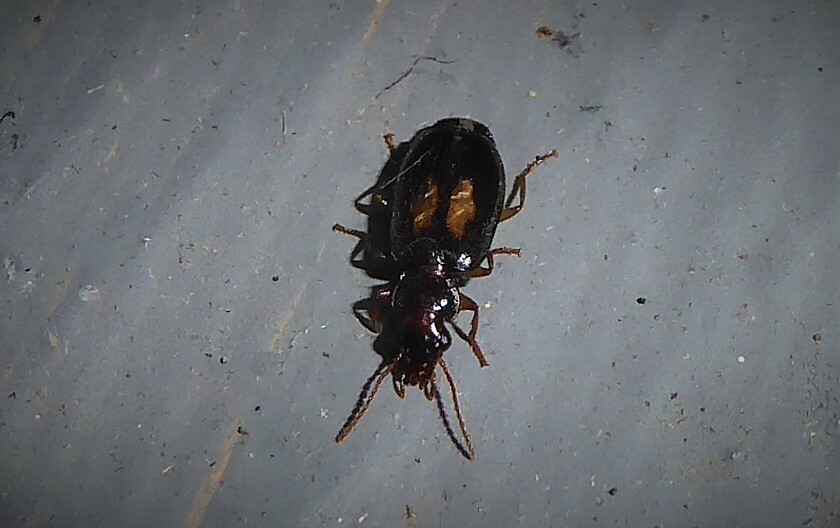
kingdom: Animalia
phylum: Arthropoda
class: Insecta
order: Coleoptera
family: Carabidae
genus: Agonocheila
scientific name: Agonocheila antipodum
